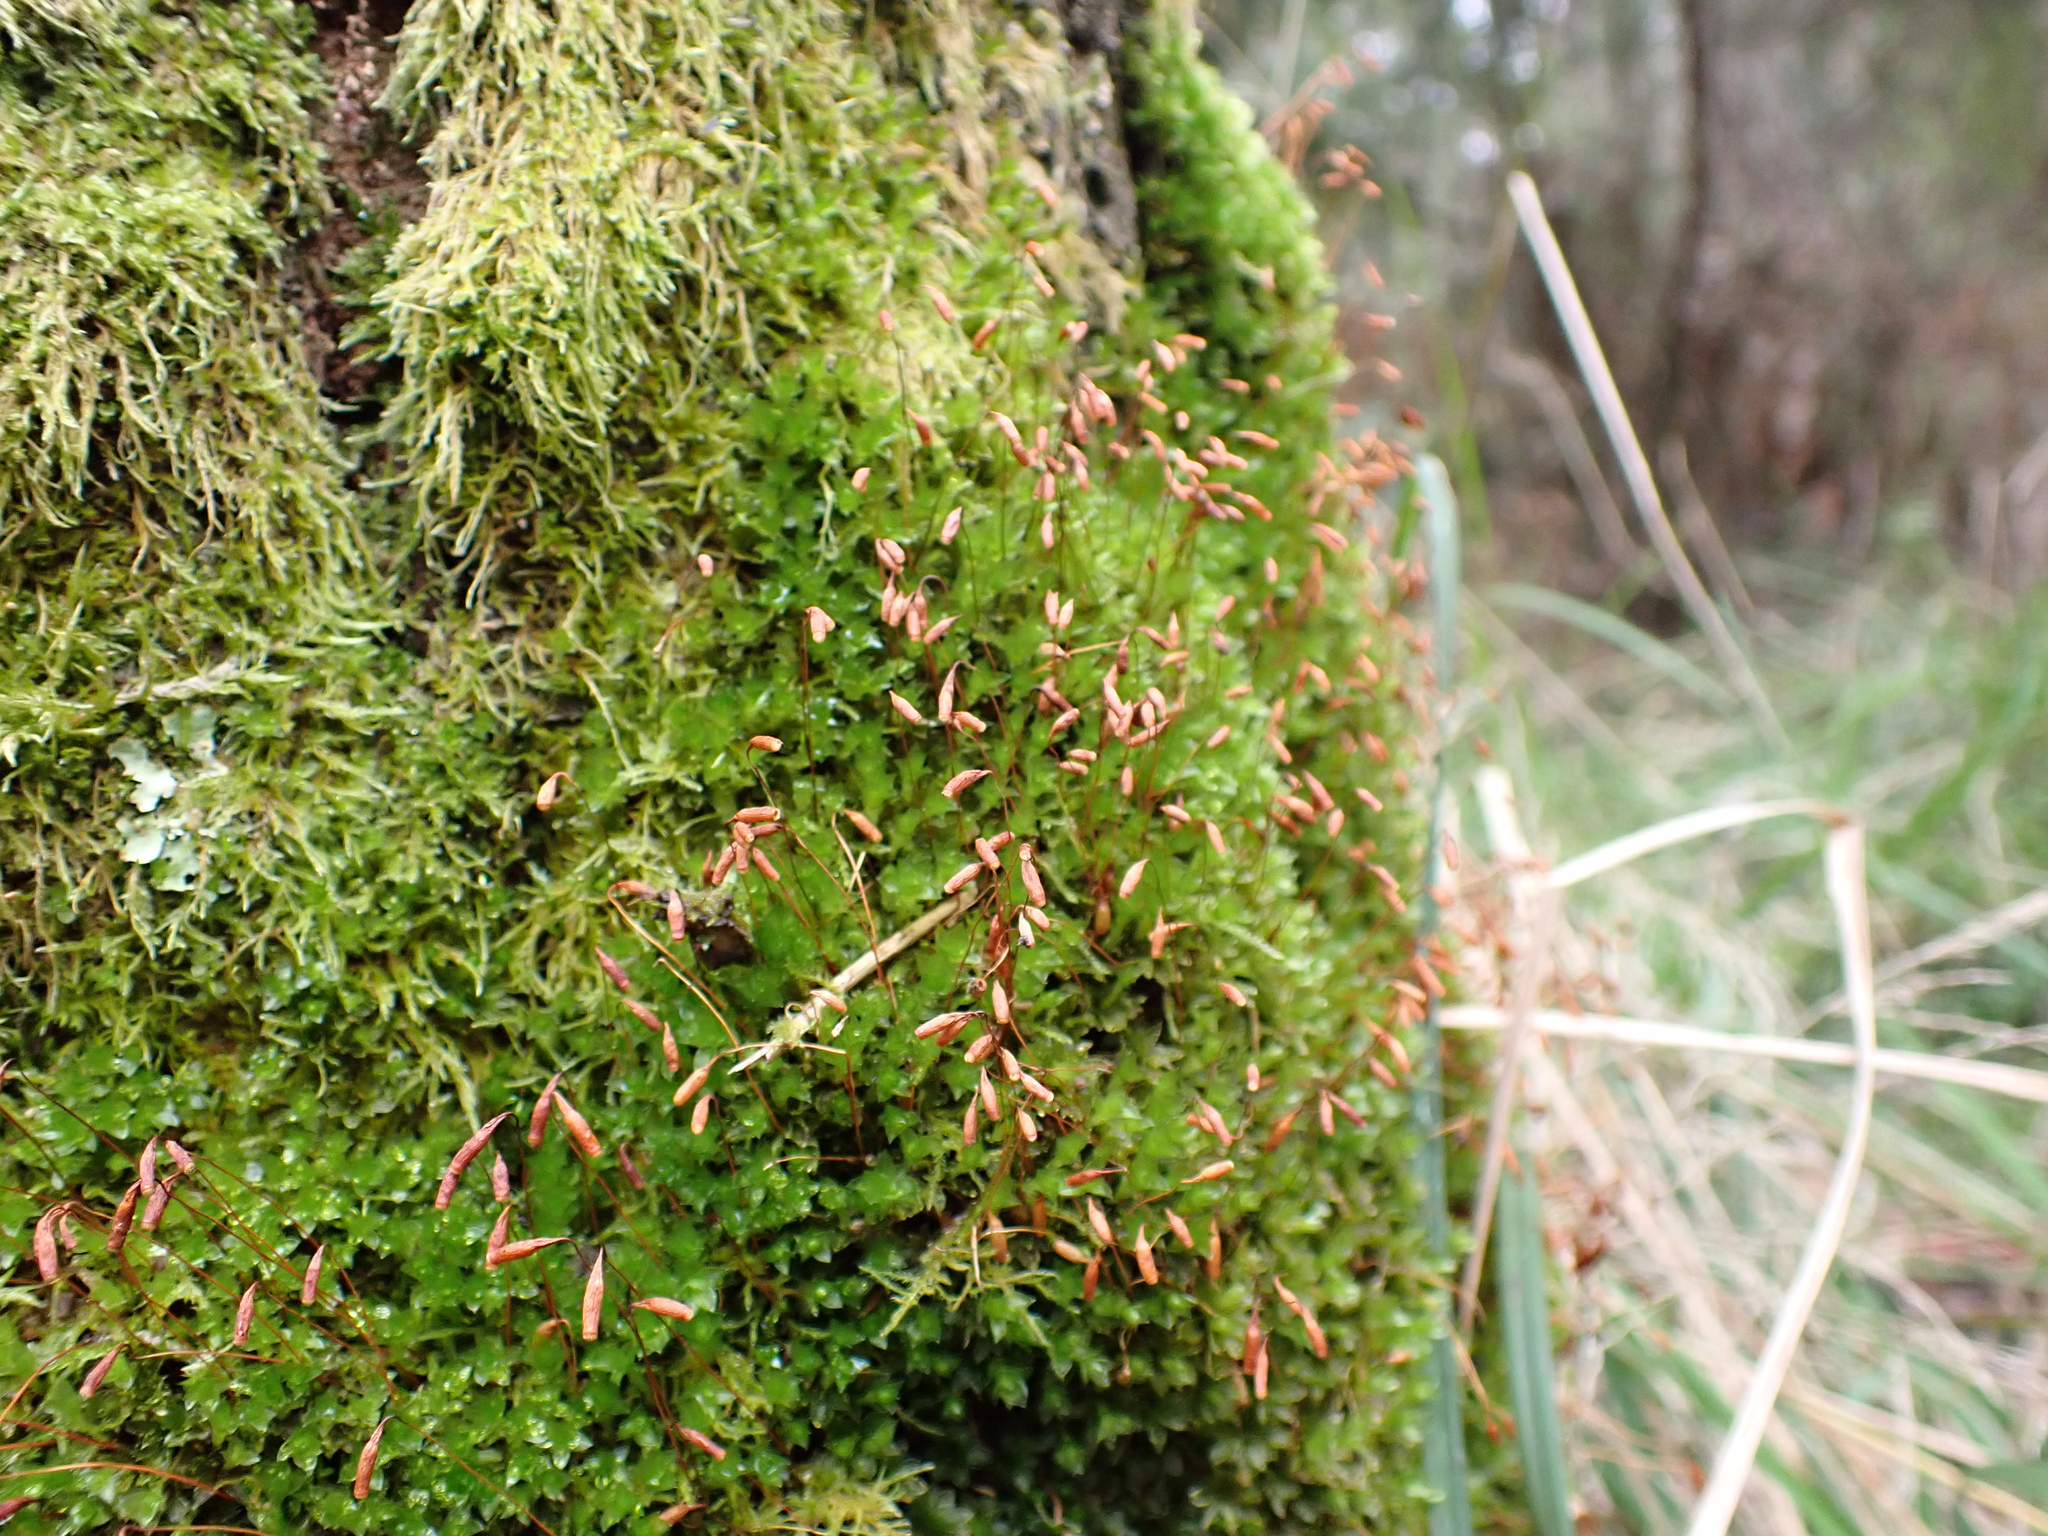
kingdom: Plantae
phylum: Bryophyta
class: Bryopsida
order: Bryales
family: Bryaceae
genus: Rosulabryum
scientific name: Rosulabryum capillare
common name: Capillary thread-moss
